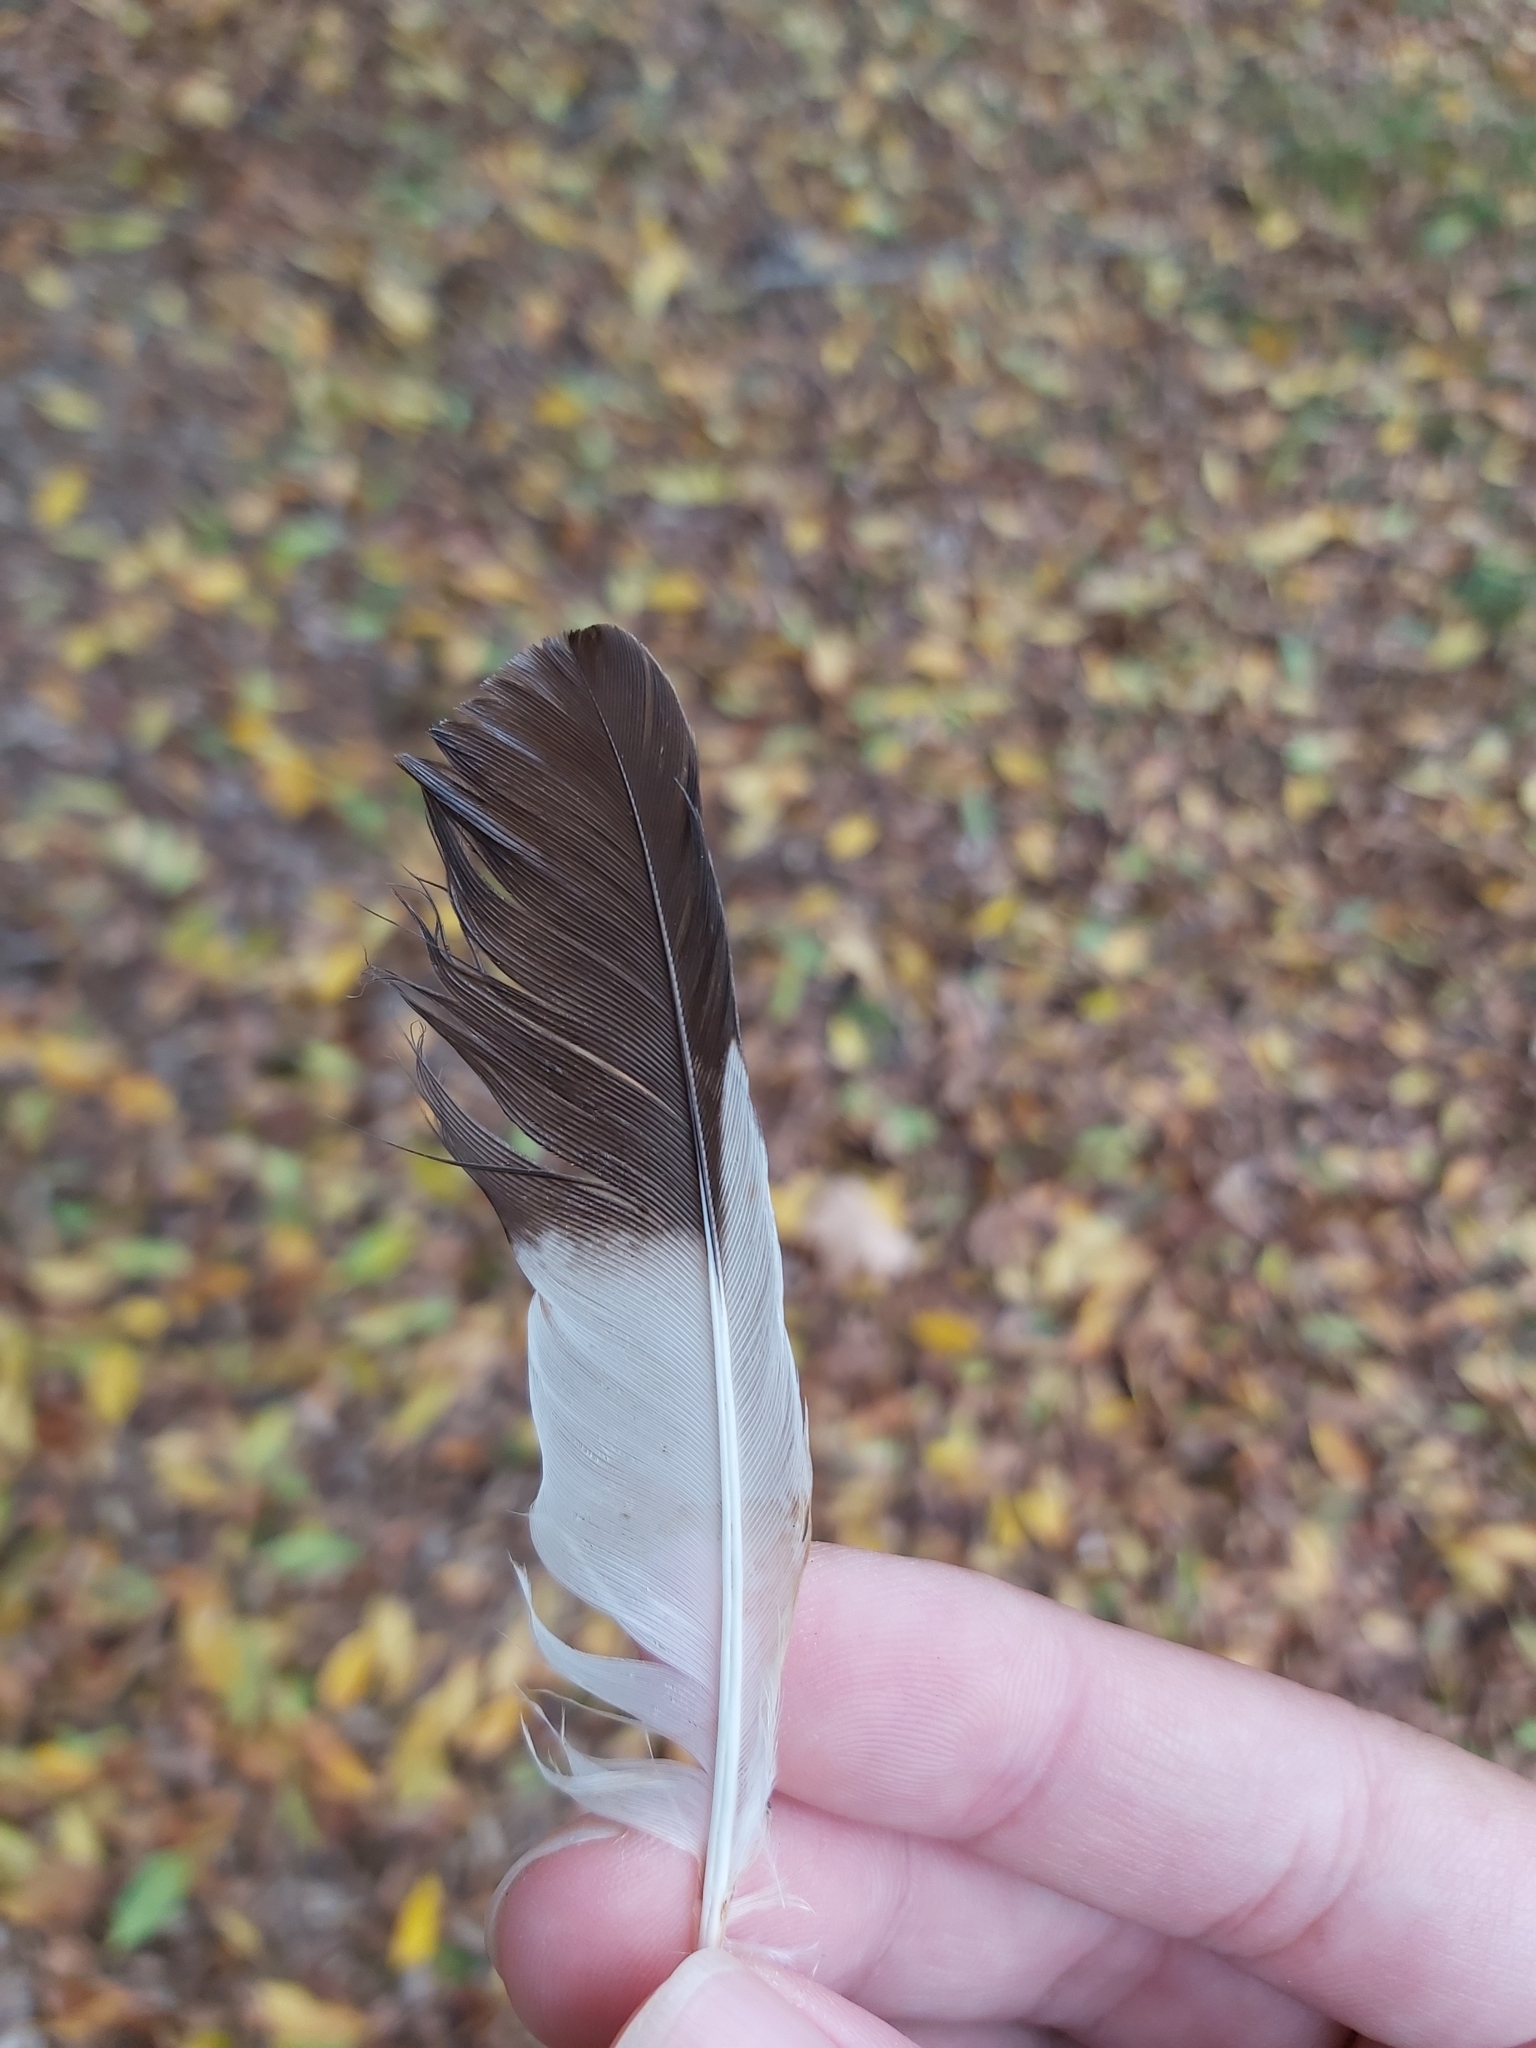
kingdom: Animalia
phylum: Chordata
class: Aves
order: Passeriformes
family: Sturnidae
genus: Acridotheres
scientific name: Acridotheres tristis
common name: Common myna
